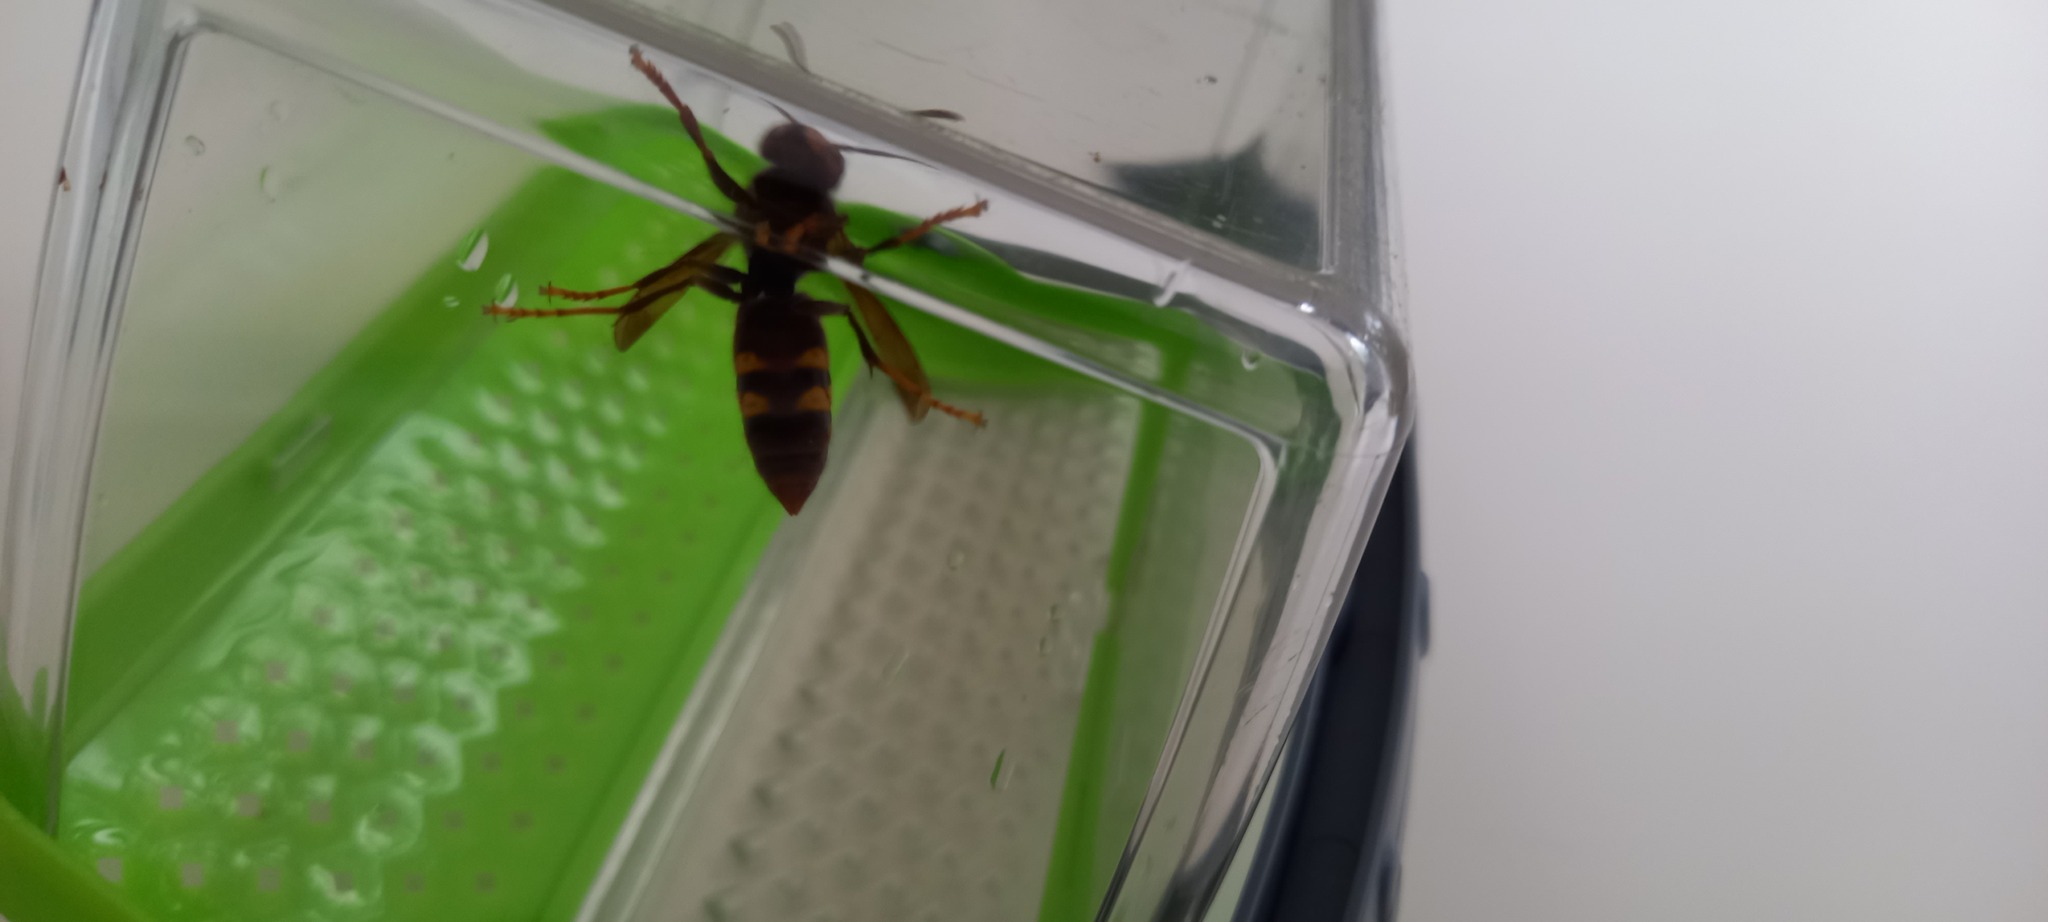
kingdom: Animalia
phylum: Arthropoda
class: Insecta
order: Hymenoptera
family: Vespidae
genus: Vespa
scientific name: Vespa velutina
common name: Asian hornet
